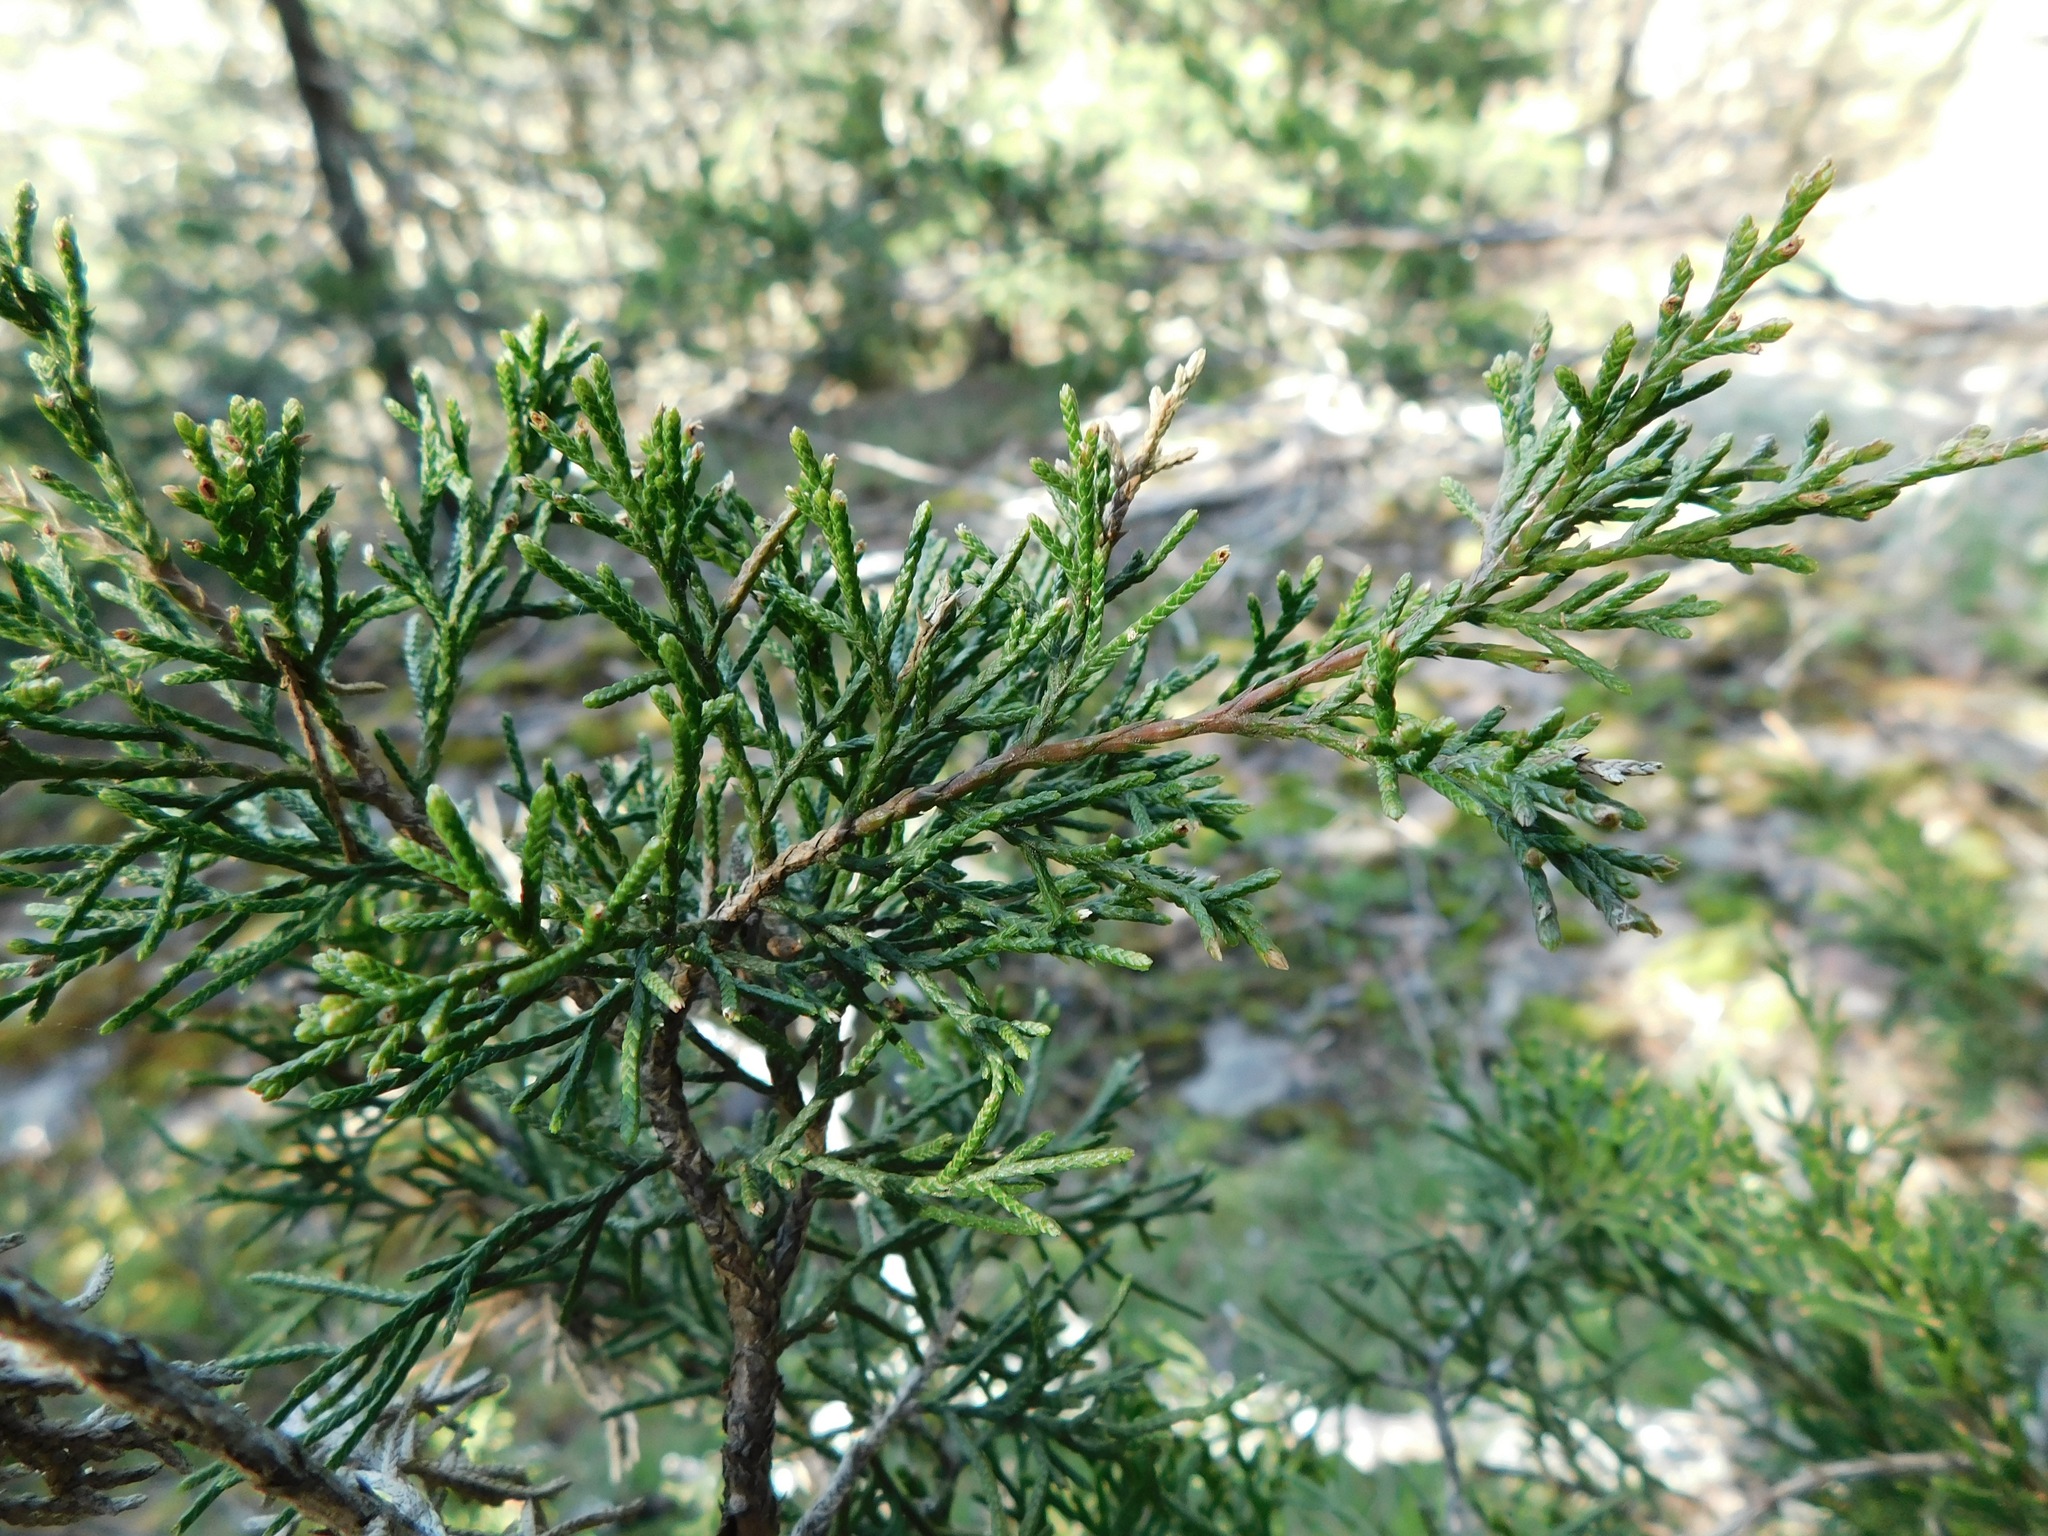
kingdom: Plantae
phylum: Tracheophyta
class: Pinopsida
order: Pinales
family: Cupressaceae
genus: Juniperus
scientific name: Juniperus virginiana
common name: Red juniper
